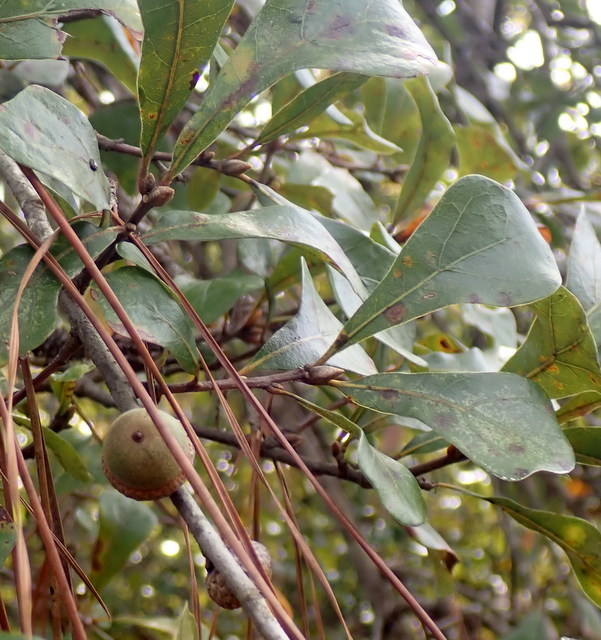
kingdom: Plantae
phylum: Tracheophyta
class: Magnoliopsida
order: Fagales
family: Fagaceae
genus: Quercus
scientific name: Quercus nigra
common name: Water oak
